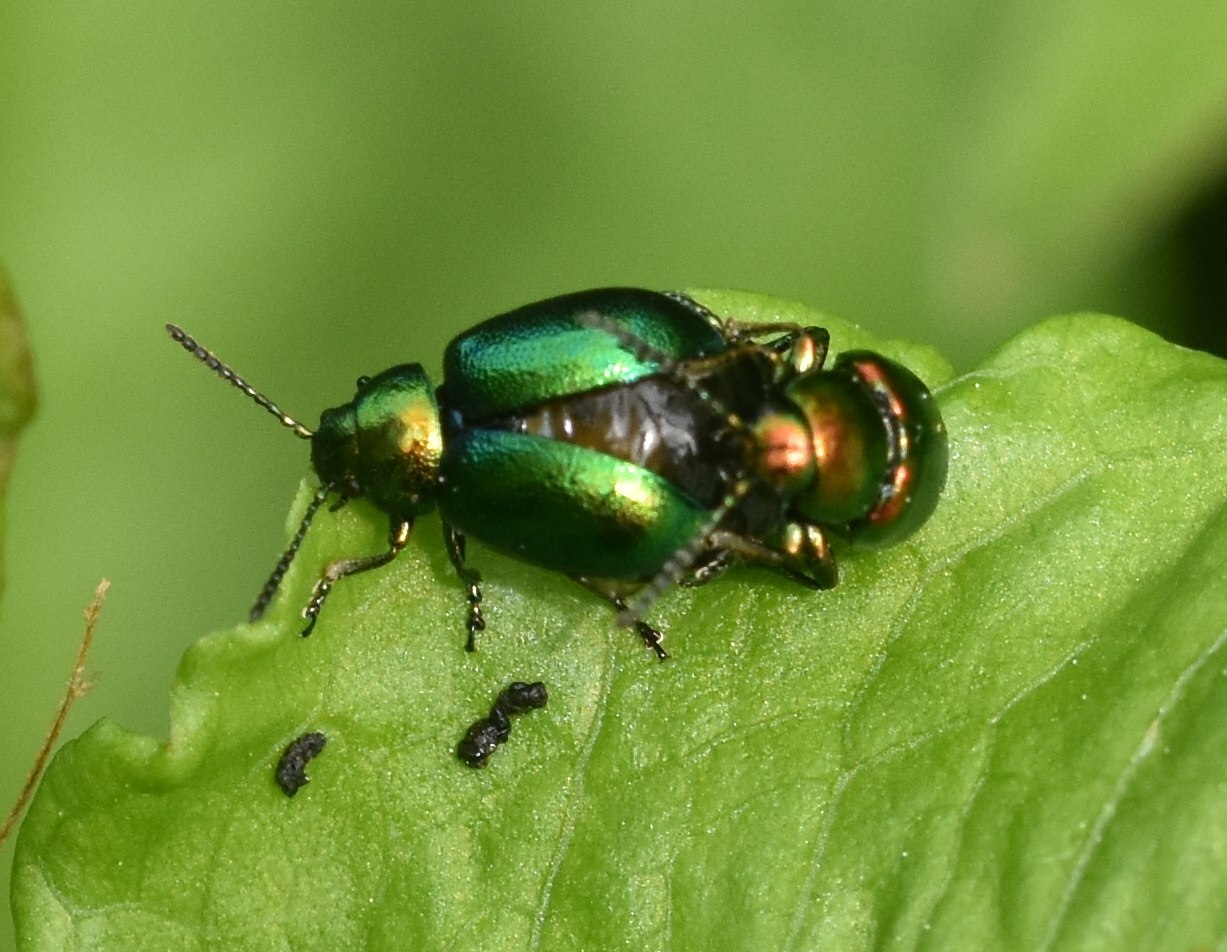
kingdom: Animalia
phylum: Arthropoda
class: Insecta
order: Coleoptera
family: Chrysomelidae
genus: Gastrophysa
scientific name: Gastrophysa viridula
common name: Green dock beetle
